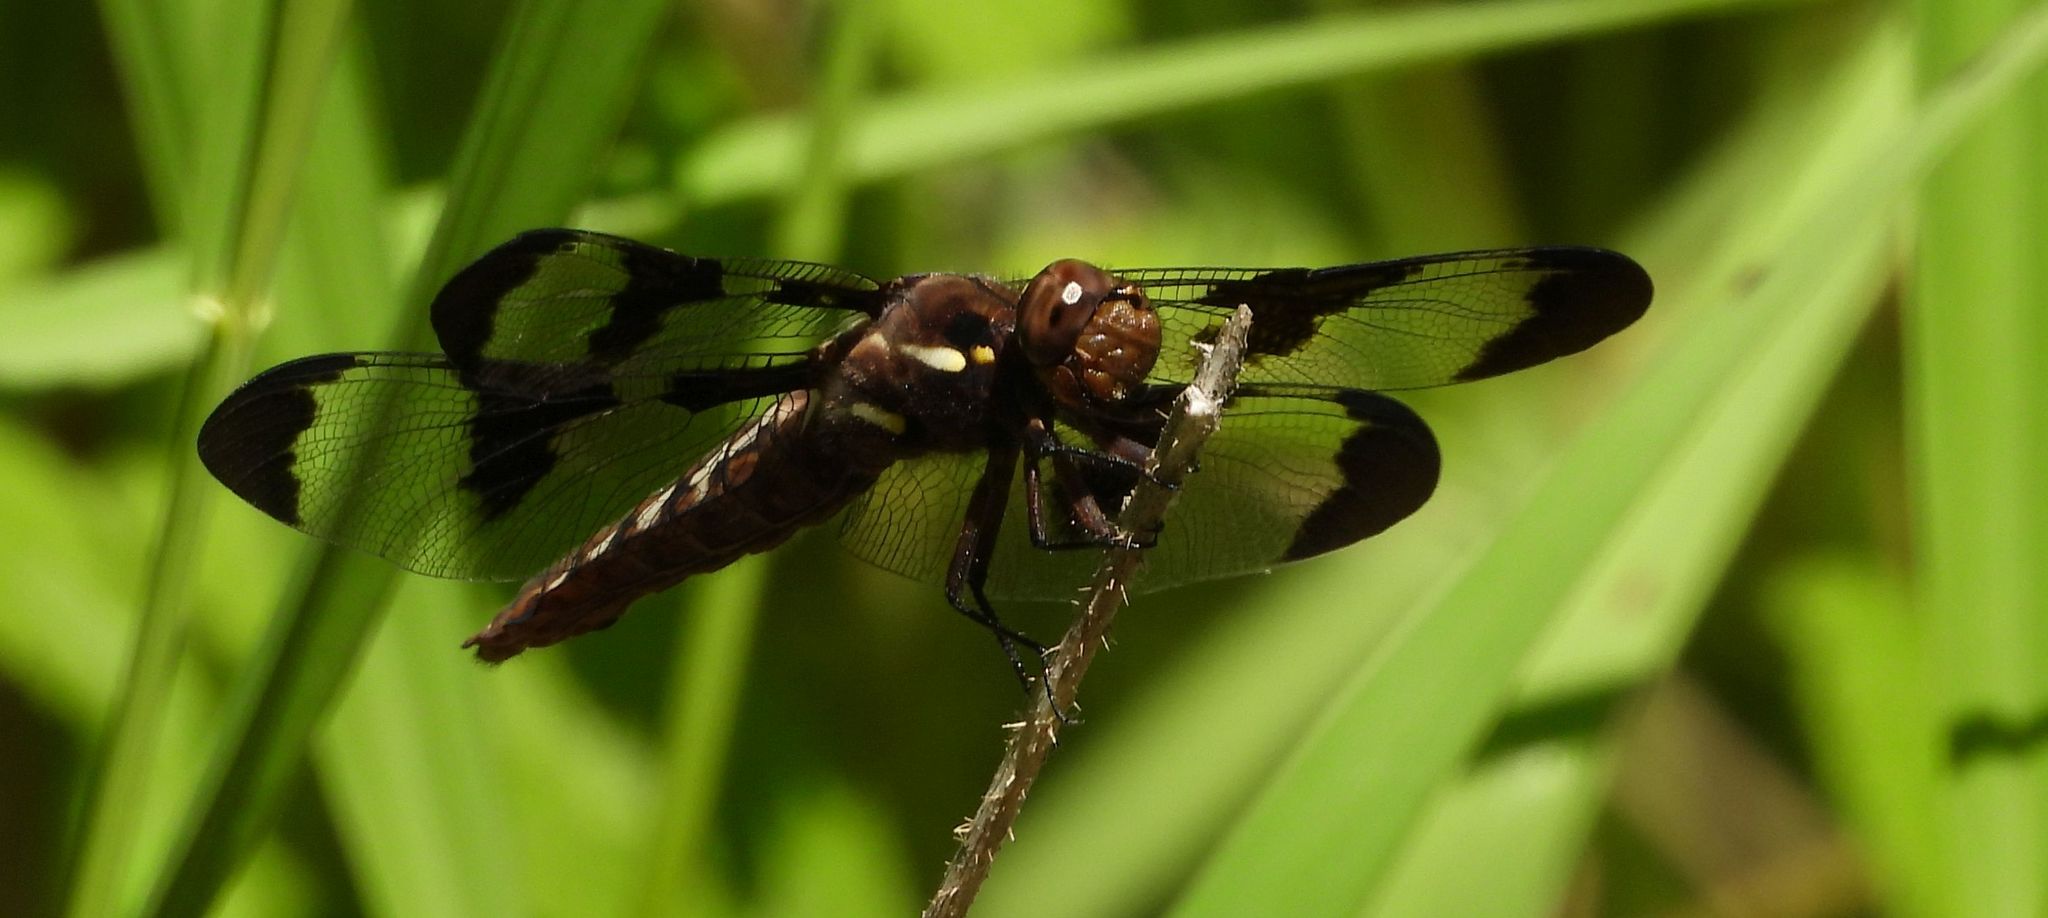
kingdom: Animalia
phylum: Arthropoda
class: Insecta
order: Odonata
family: Libellulidae
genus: Plathemis
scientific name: Plathemis lydia
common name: Common whitetail
